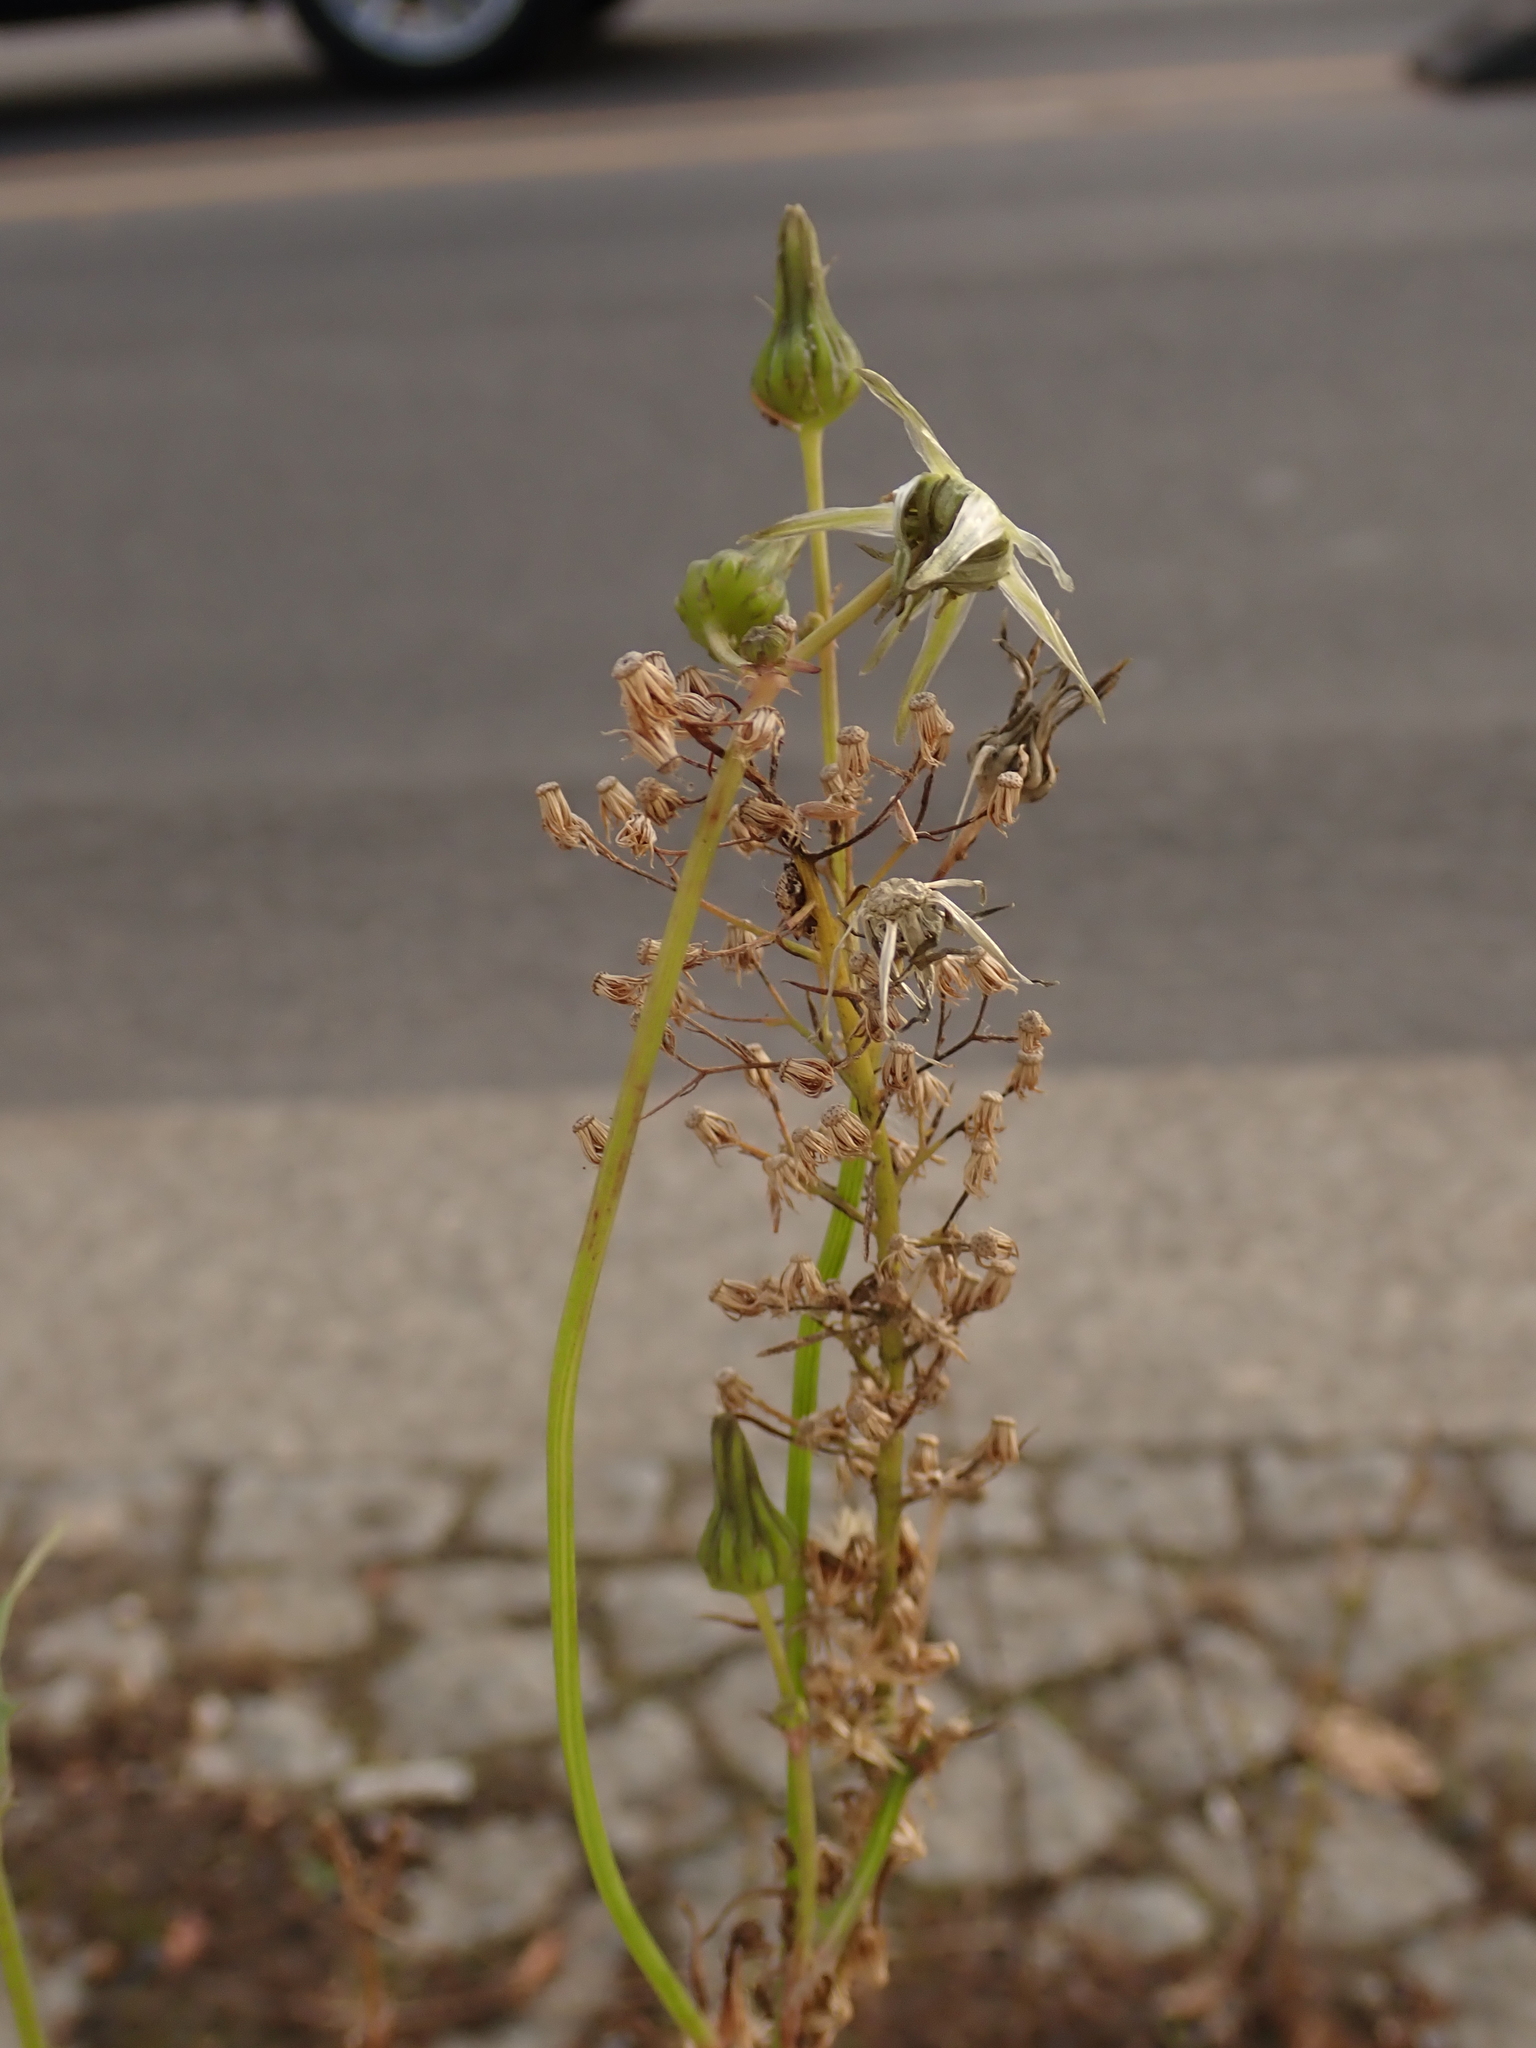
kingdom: Plantae
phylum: Tracheophyta
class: Magnoliopsida
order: Asterales
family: Asteraceae
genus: Erigeron
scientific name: Erigeron canadensis
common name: Canadian fleabane
